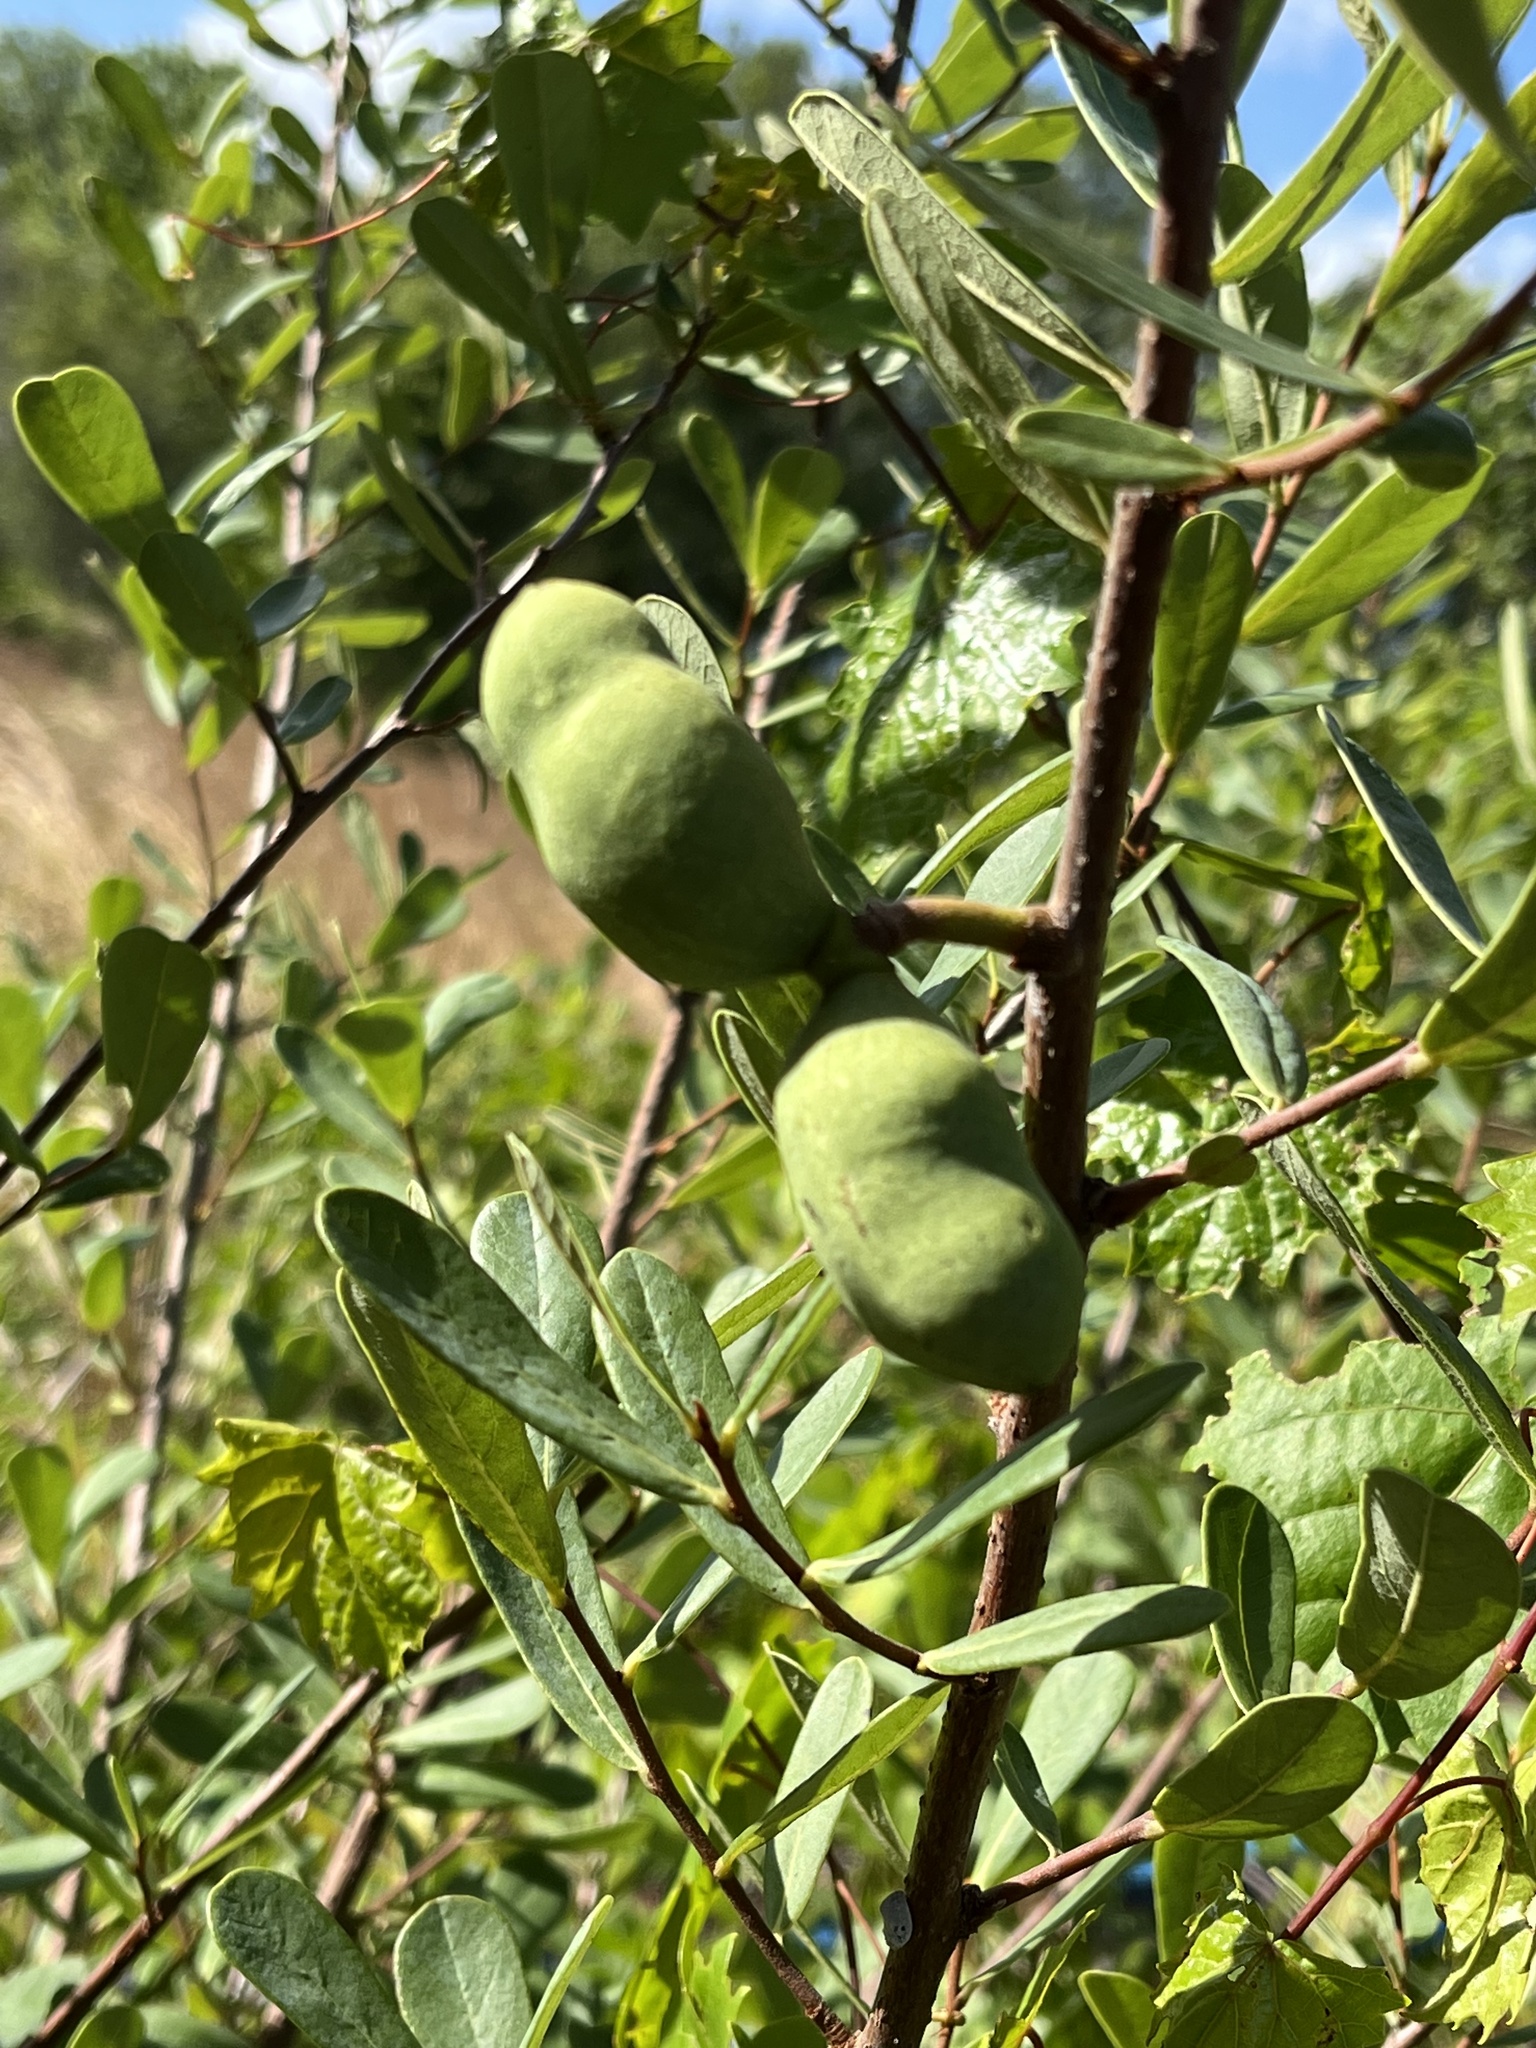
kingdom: Plantae
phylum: Tracheophyta
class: Magnoliopsida
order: Magnoliales
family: Annonaceae
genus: Asimina
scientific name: Asimina reticulata
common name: Flag pawpaw
